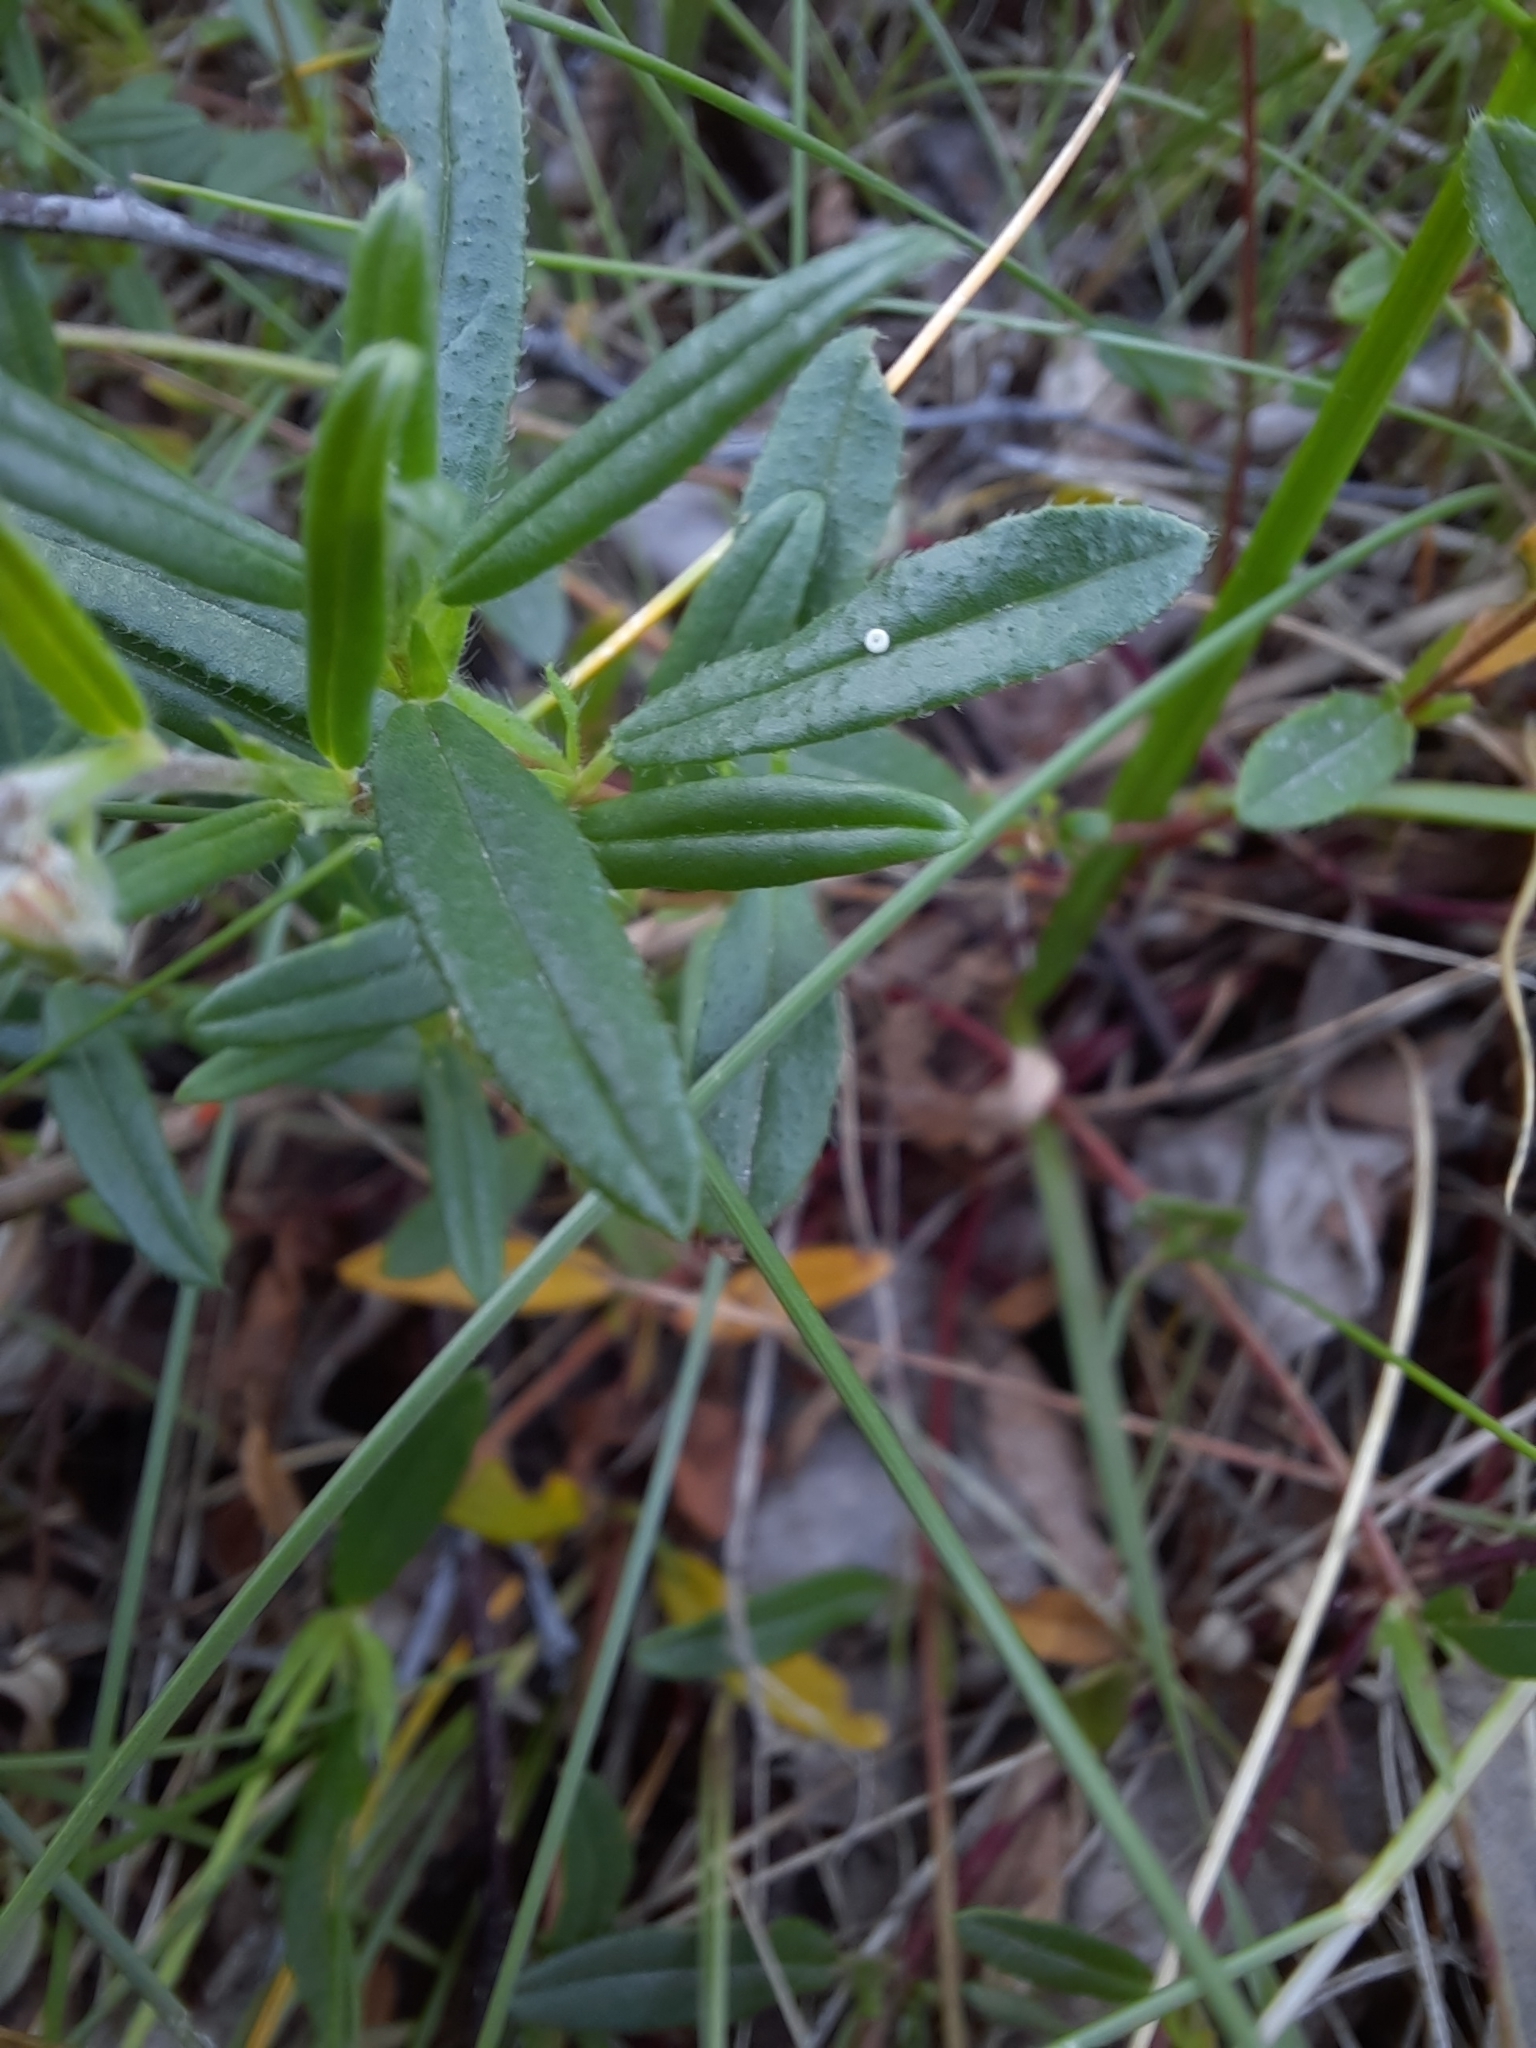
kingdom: Animalia
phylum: Arthropoda
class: Insecta
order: Lepidoptera
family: Lycaenidae
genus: Aricia
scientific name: Aricia artaxerxes
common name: Northern brown argus
